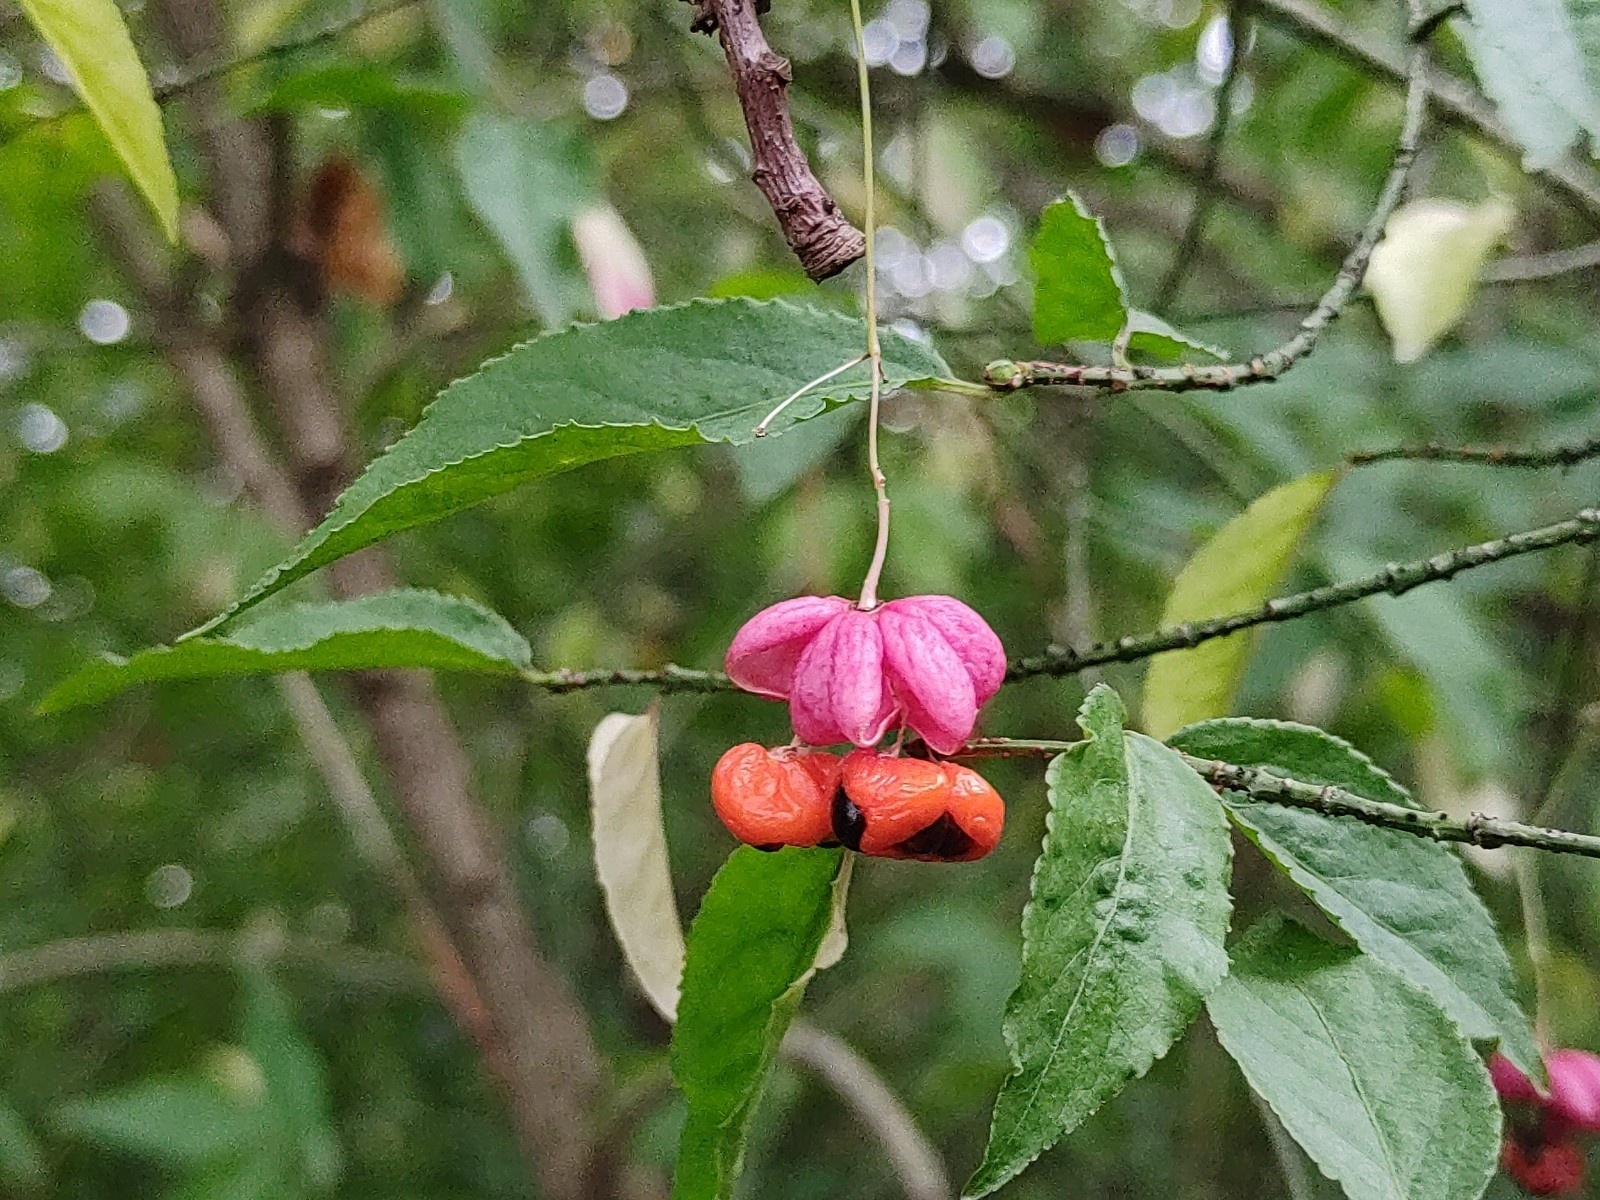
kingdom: Plantae
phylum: Tracheophyta
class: Magnoliopsida
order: Celastrales
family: Celastraceae
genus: Euonymus
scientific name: Euonymus verrucosus
